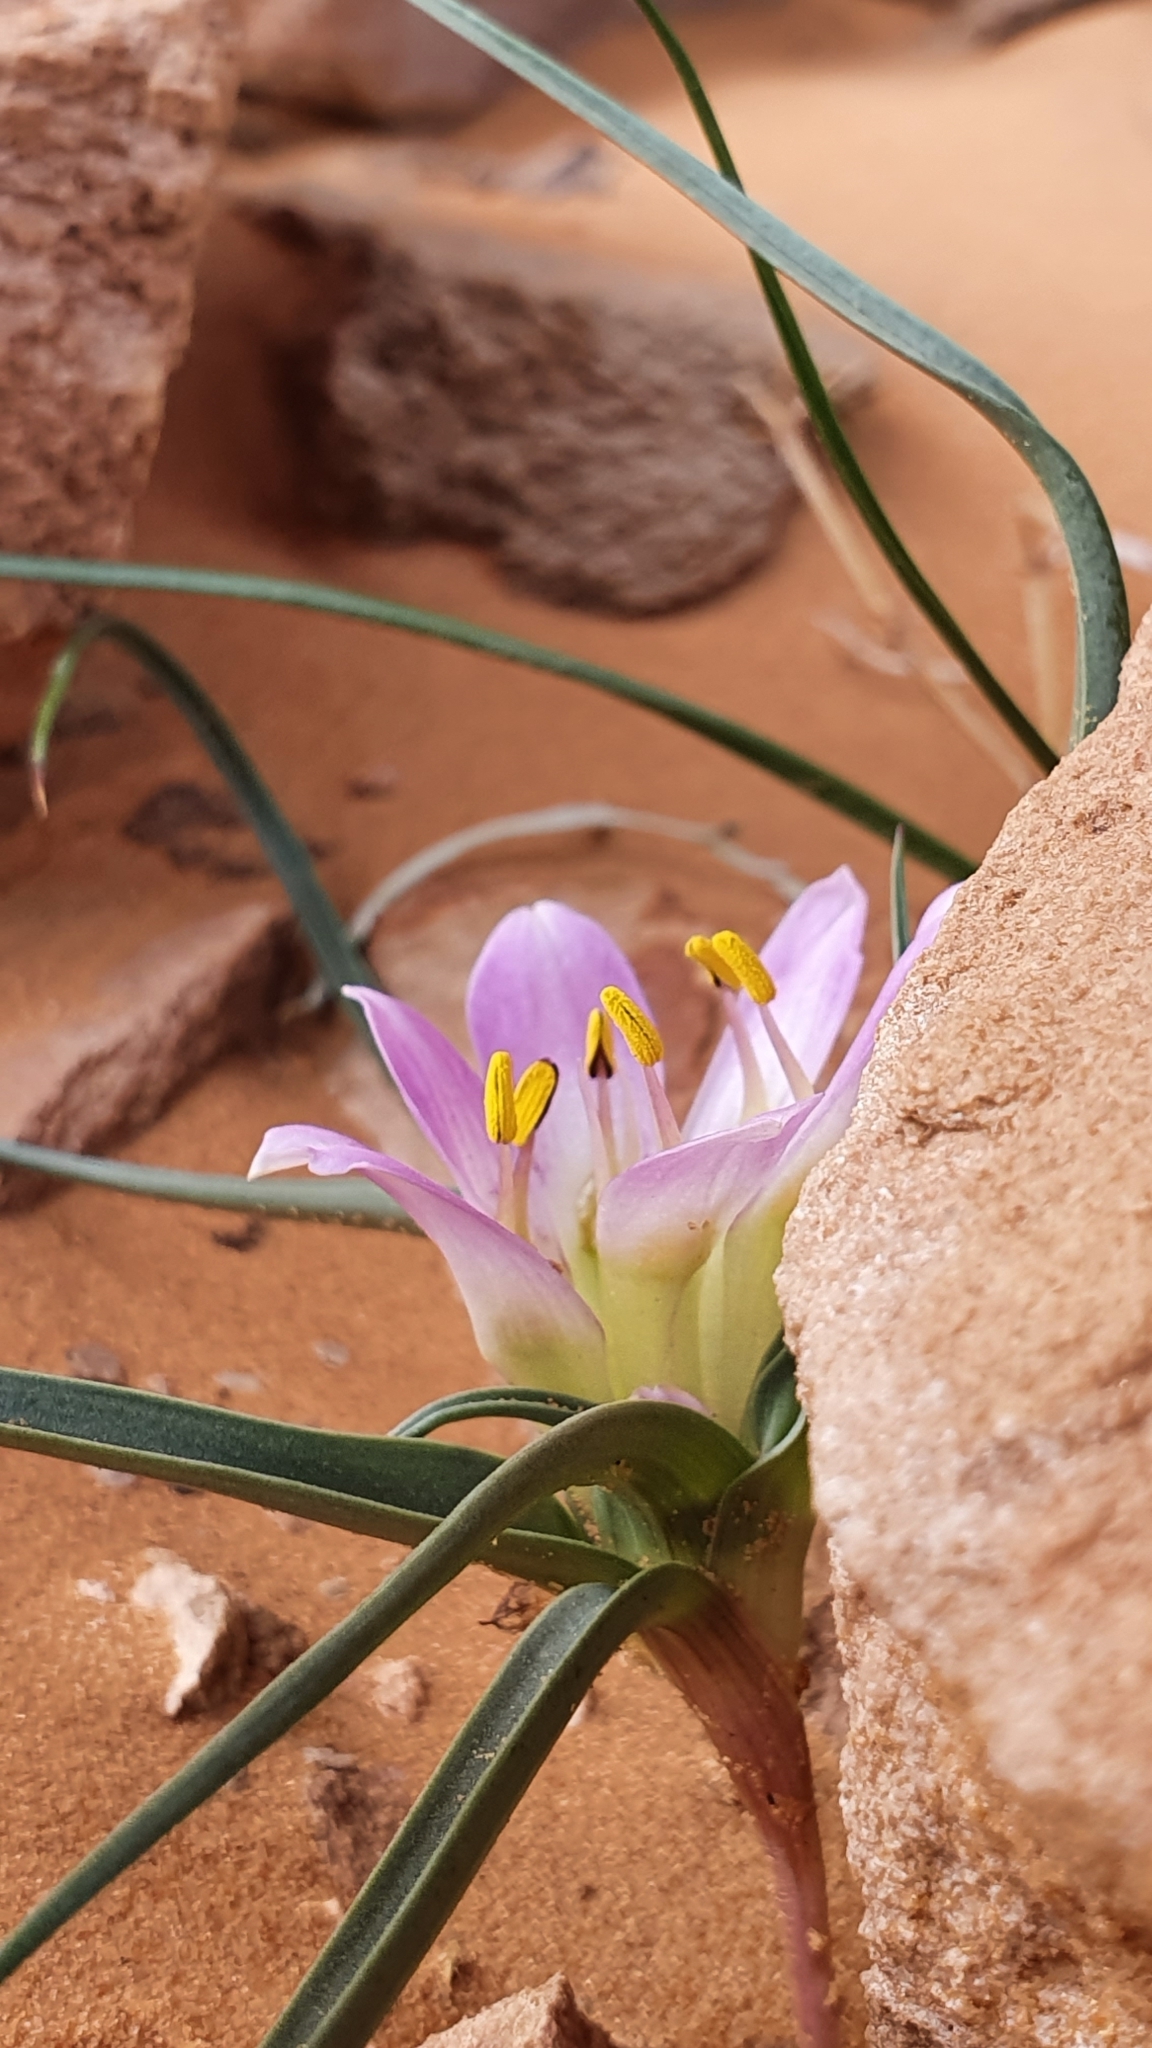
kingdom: Plantae
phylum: Tracheophyta
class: Liliopsida
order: Liliales
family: Colchicaceae
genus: Colchicum
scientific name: Colchicum gramineum
